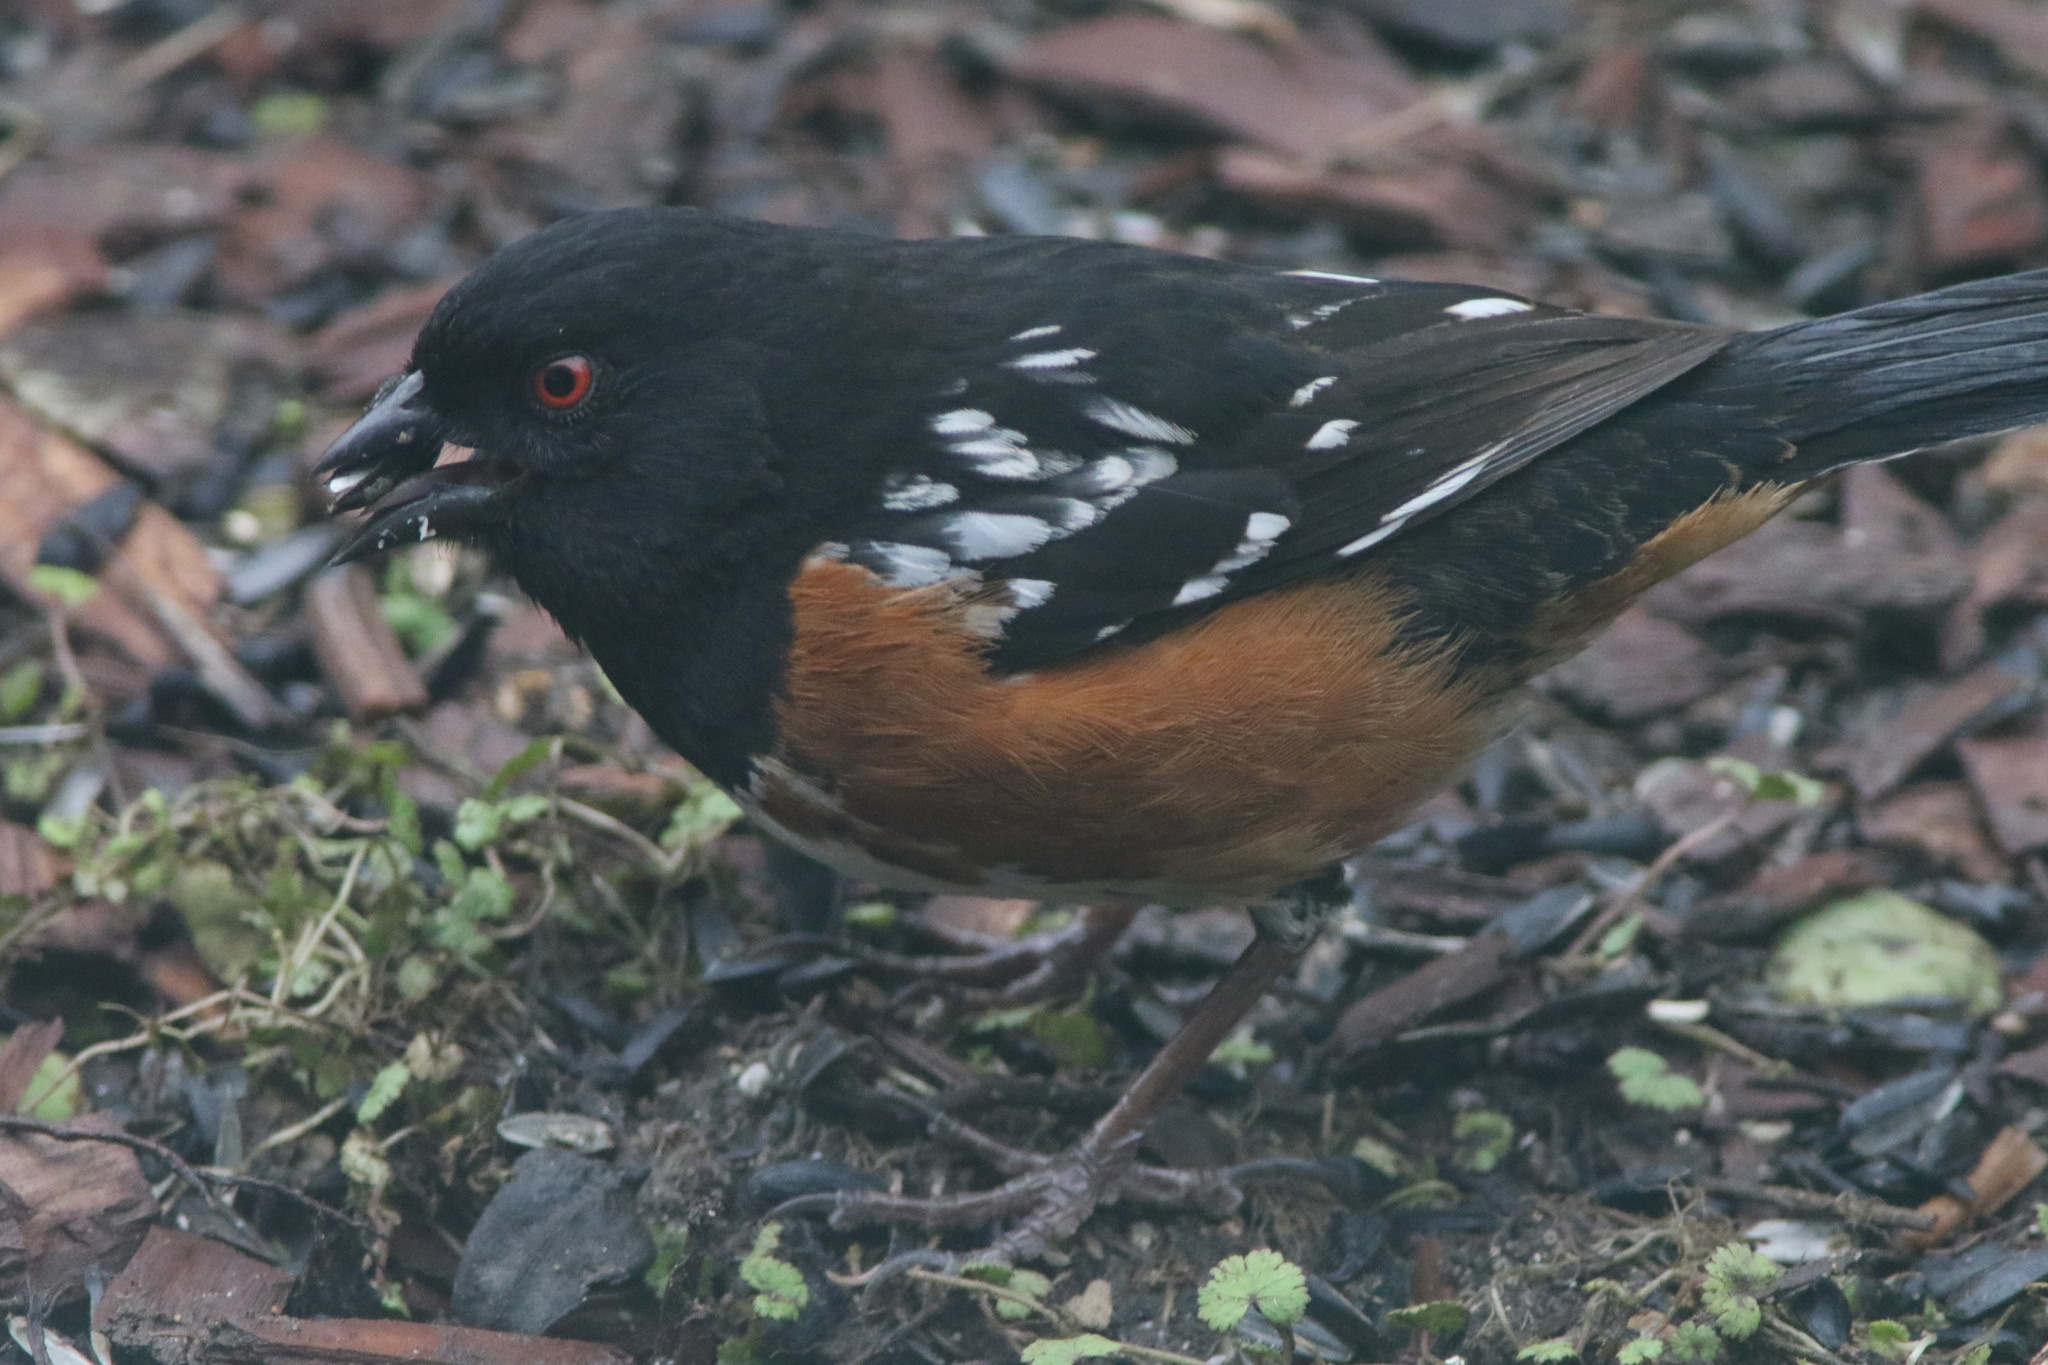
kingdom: Animalia
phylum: Chordata
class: Aves
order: Passeriformes
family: Passerellidae
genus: Pipilo
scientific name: Pipilo maculatus
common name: Spotted towhee
